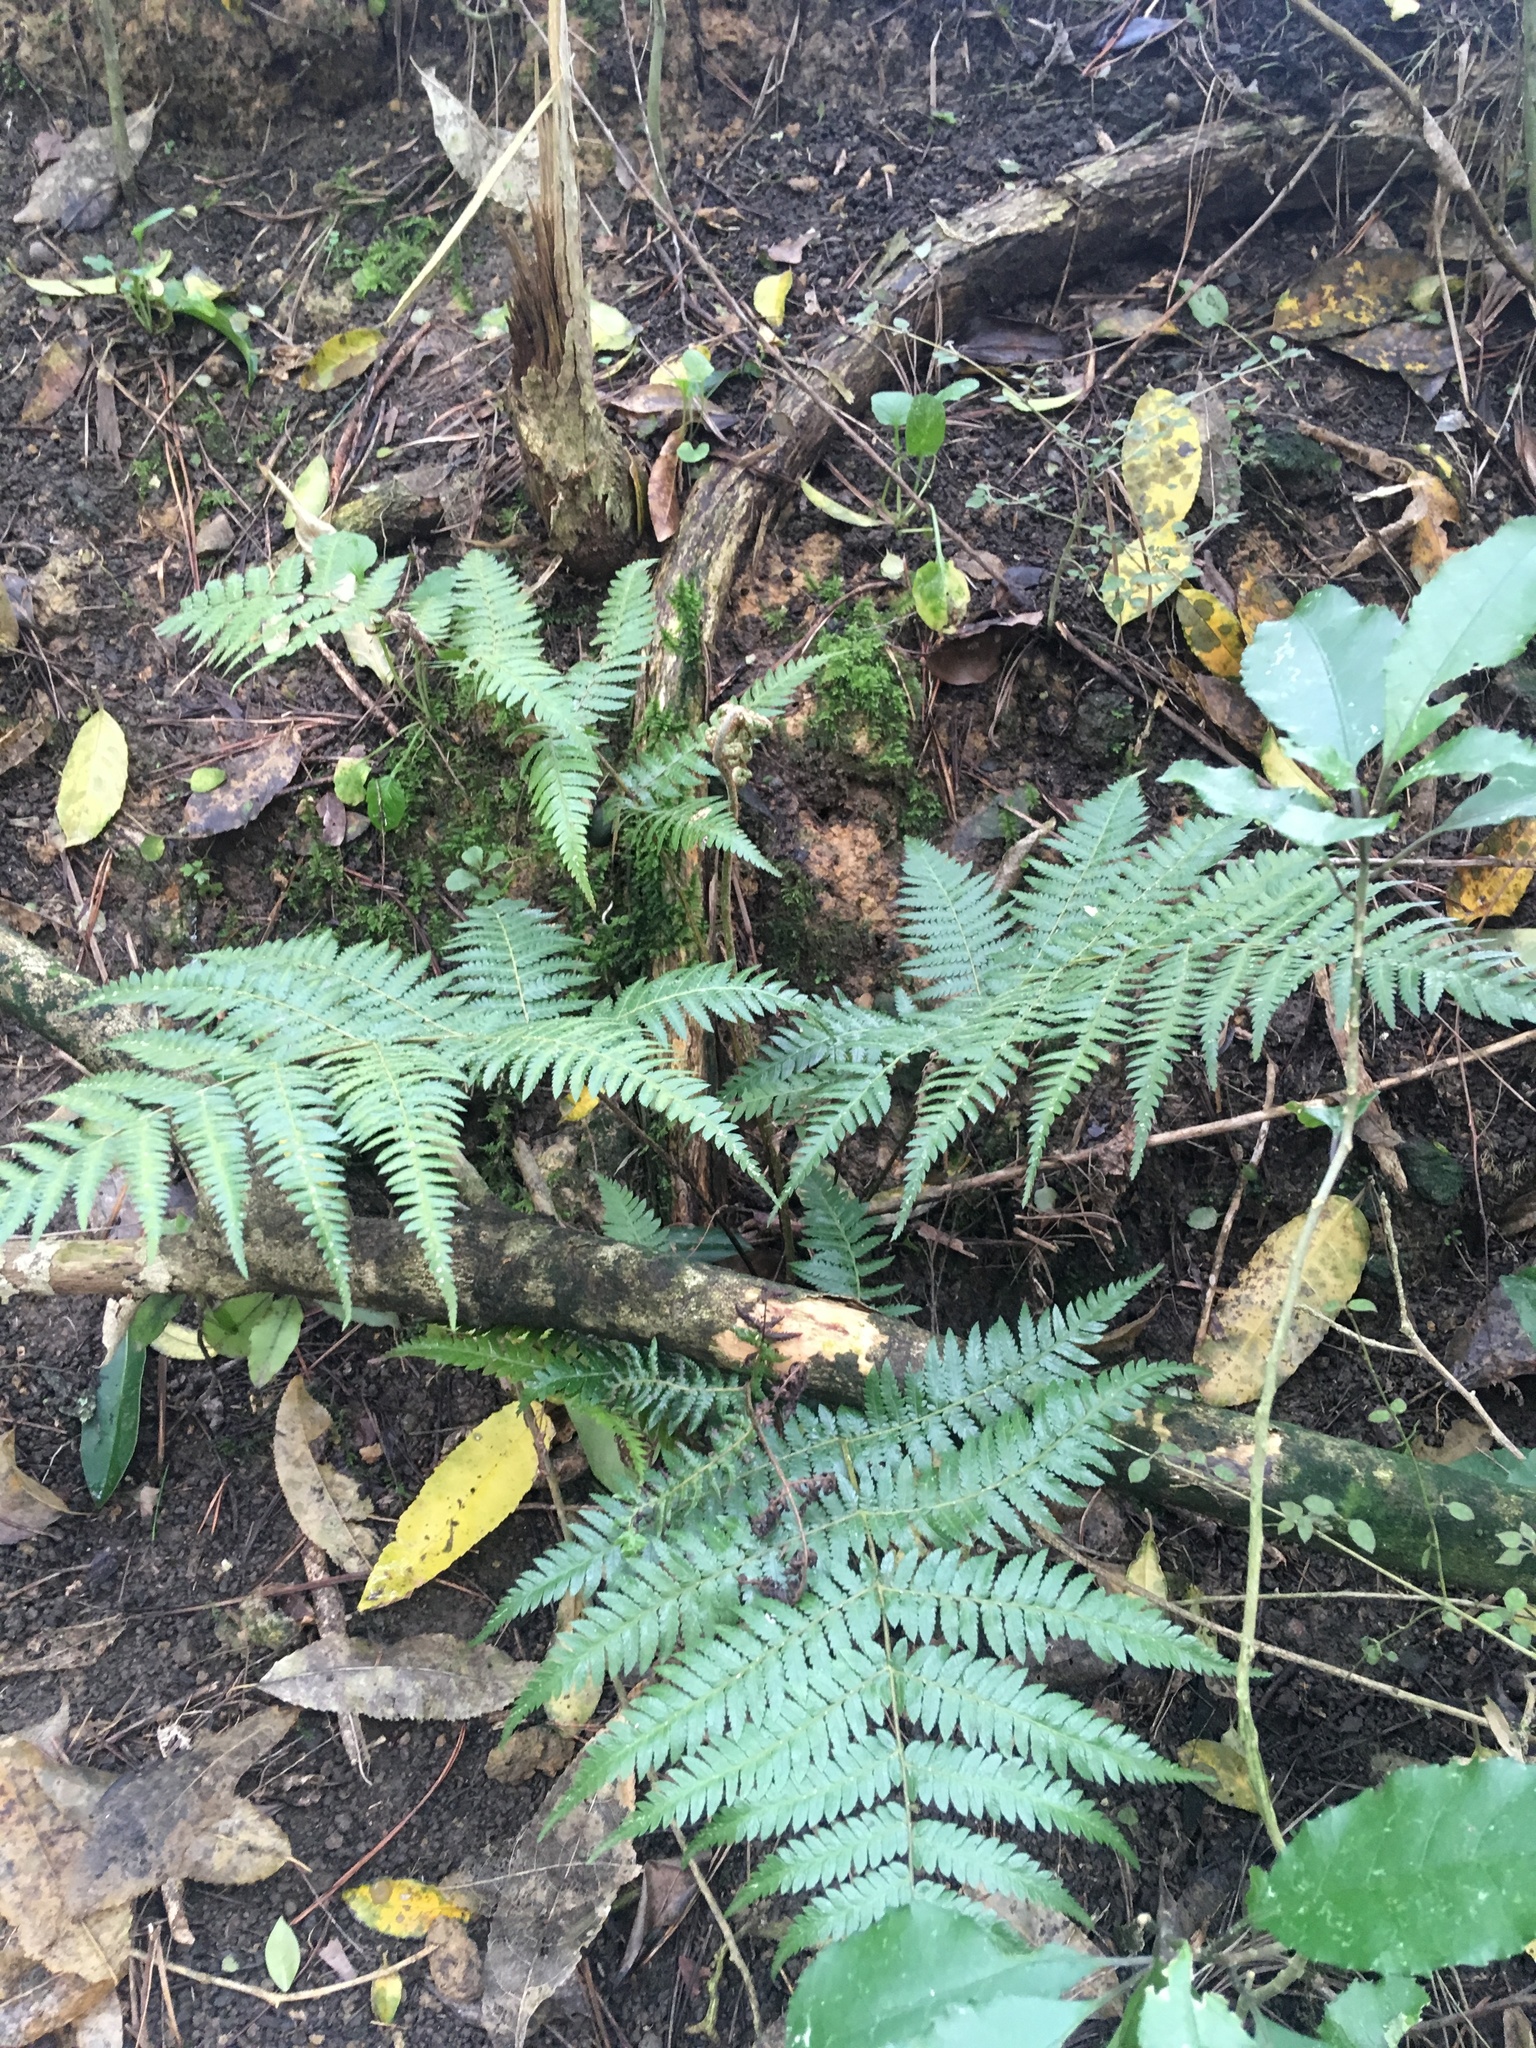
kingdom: Plantae
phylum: Tracheophyta
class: Polypodiopsida
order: Cyatheales
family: Cyatheaceae
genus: Alsophila
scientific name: Alsophila dealbata
